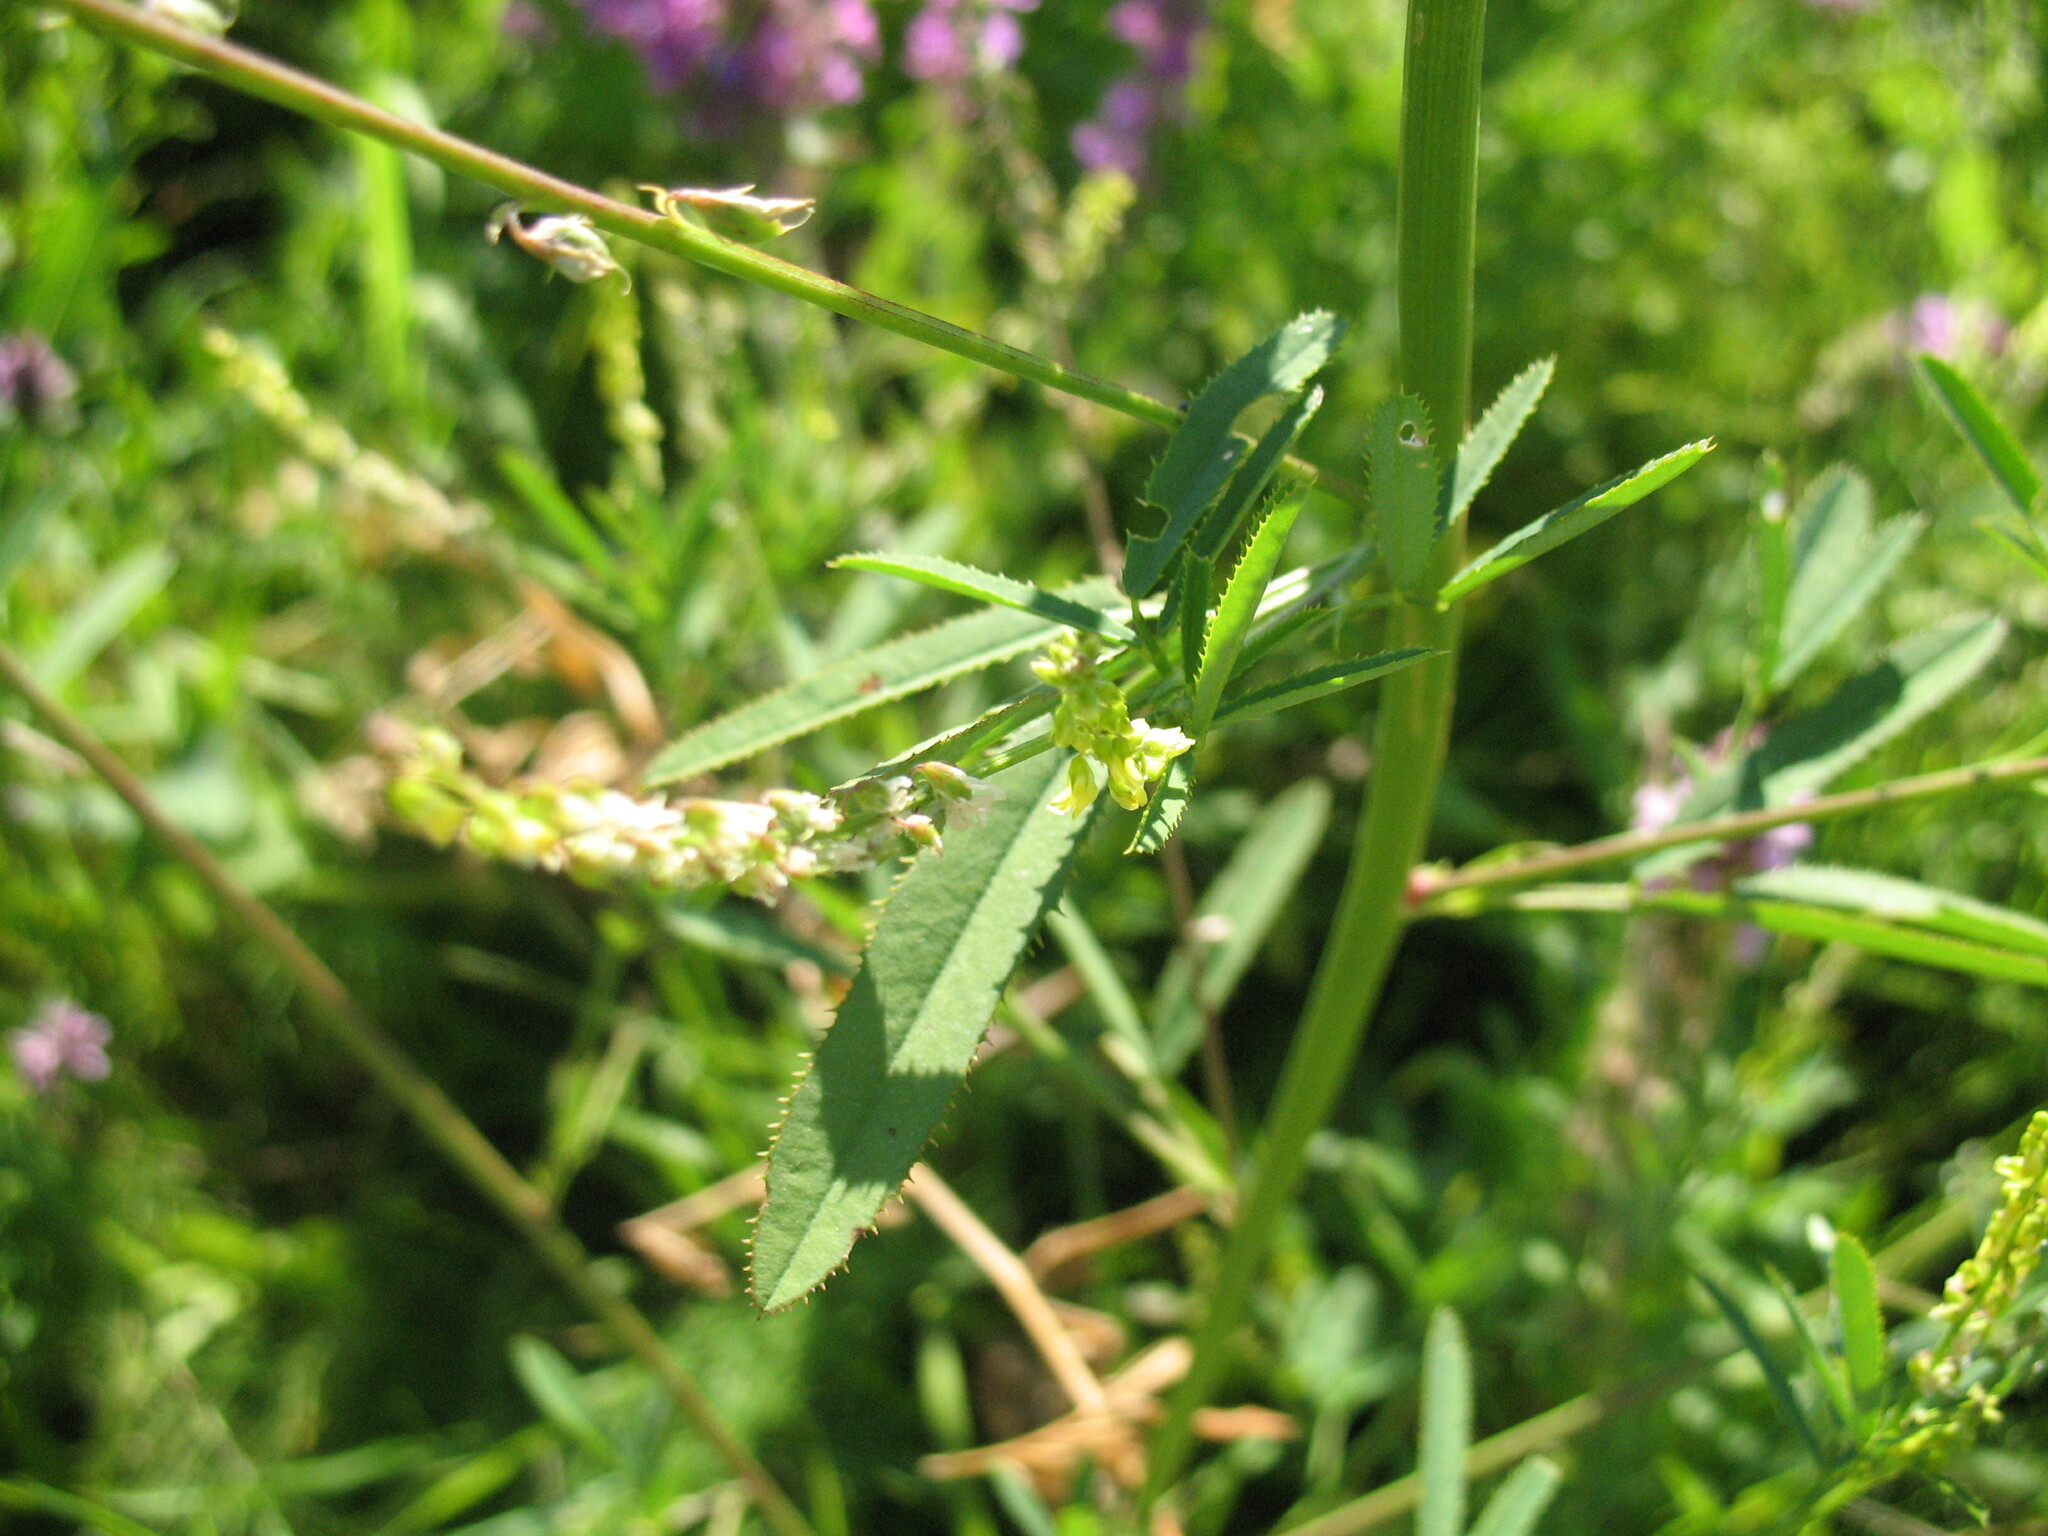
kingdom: Plantae
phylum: Tracheophyta
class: Magnoliopsida
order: Fabales
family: Fabaceae
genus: Melilotus
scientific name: Melilotus dentatus
